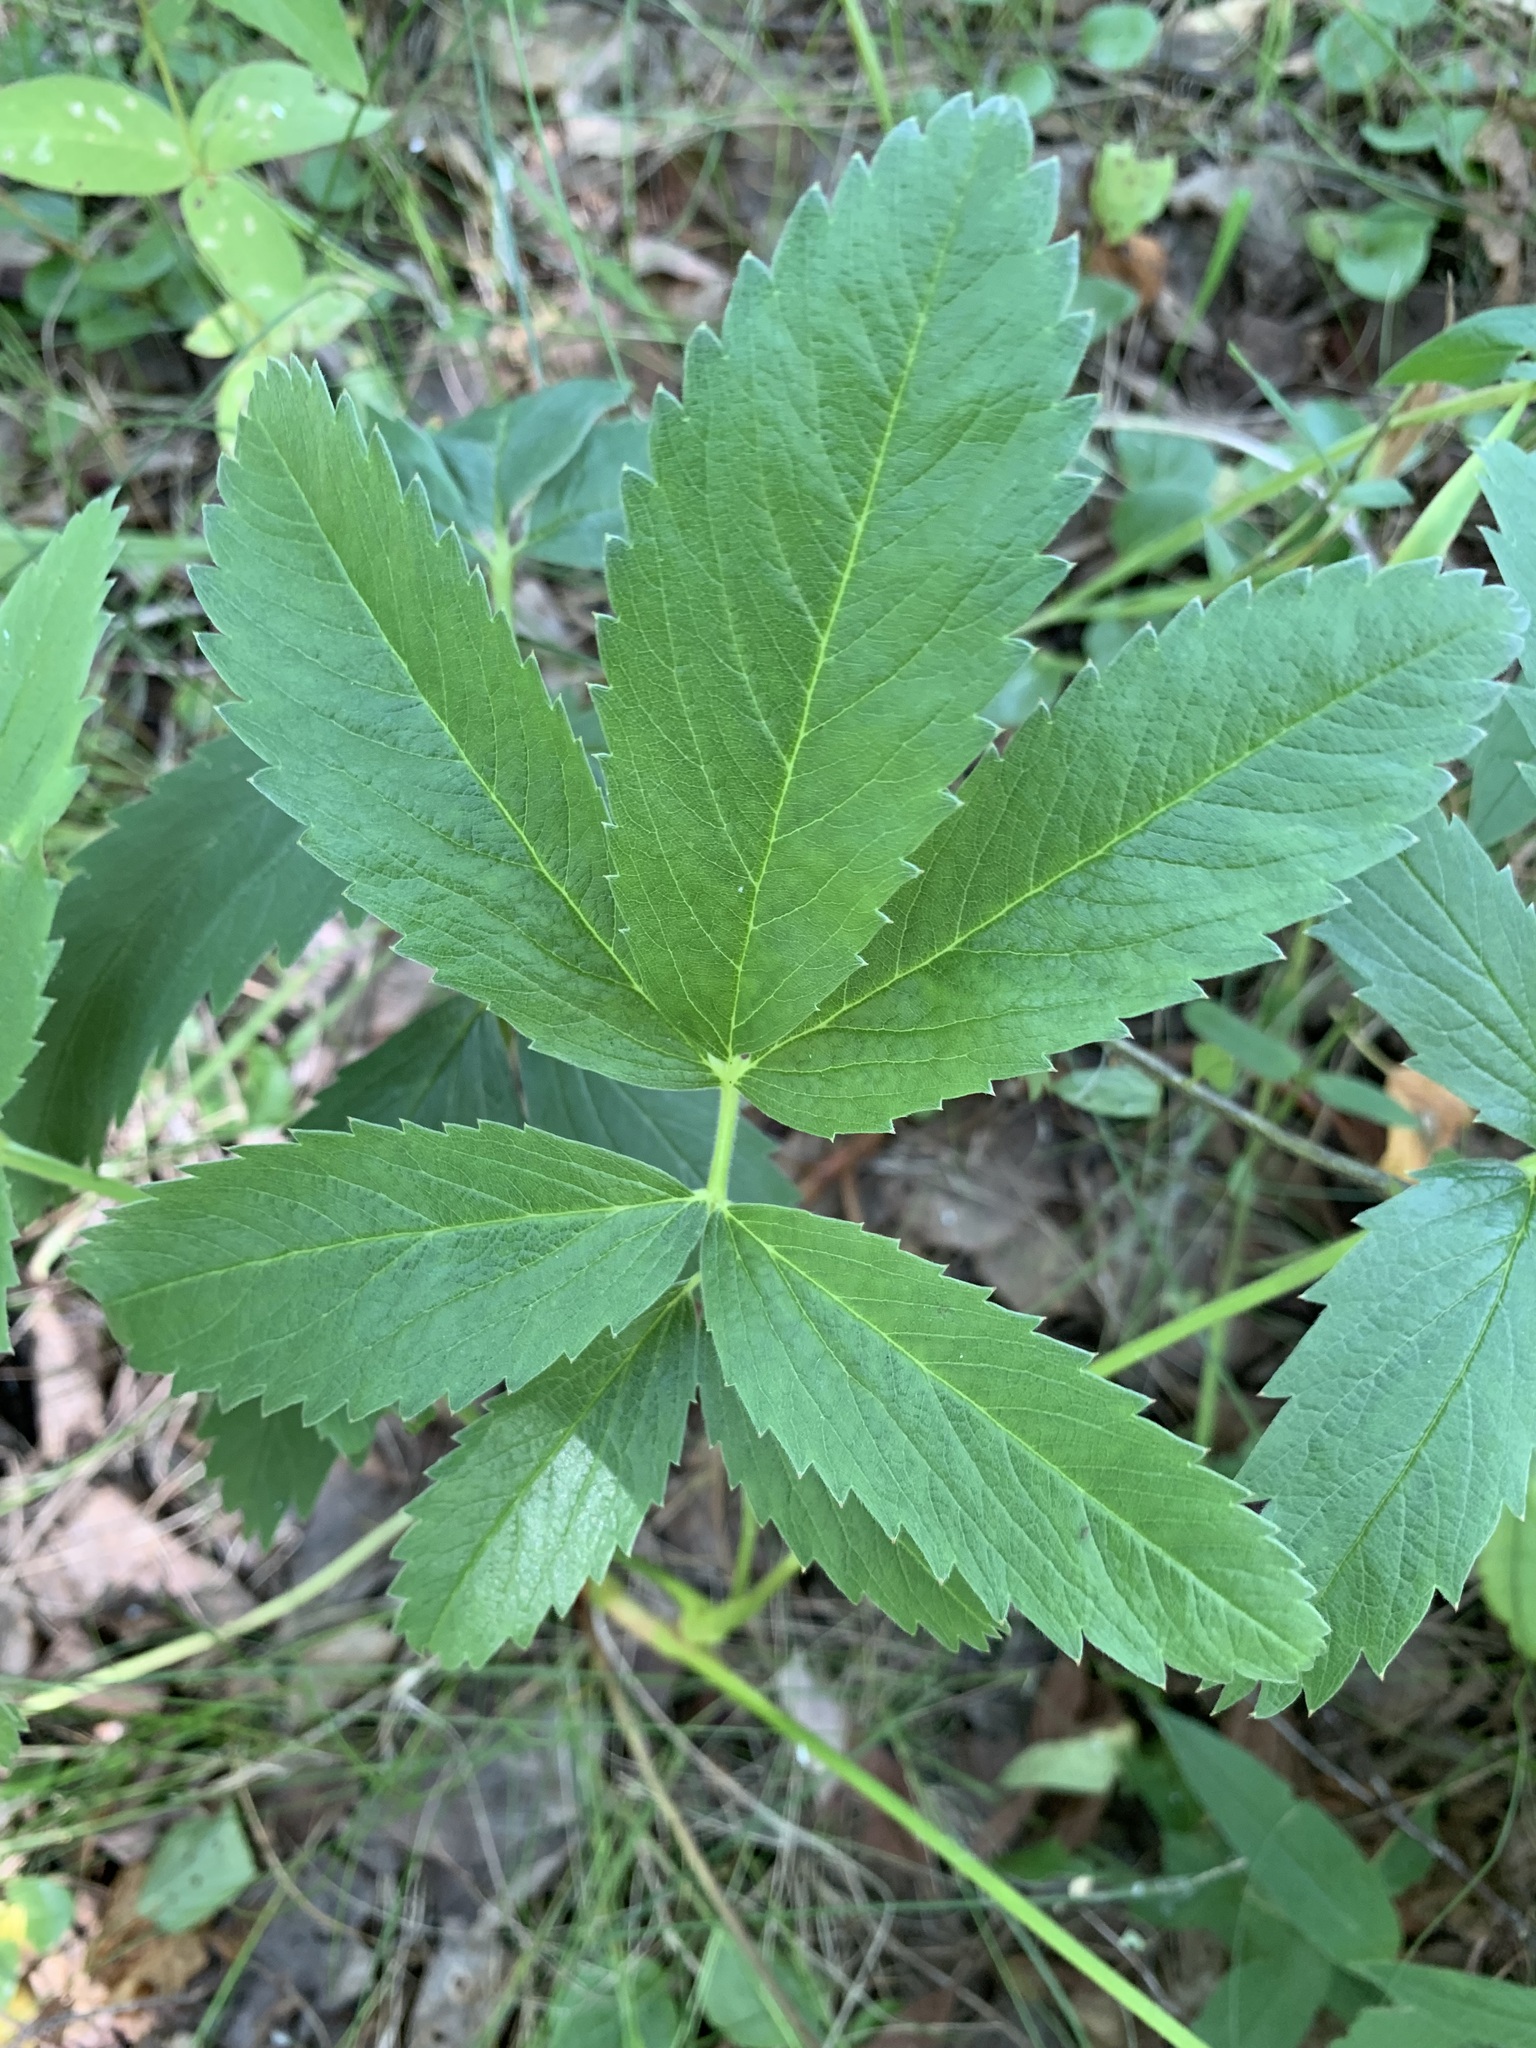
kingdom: Plantae
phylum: Tracheophyta
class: Magnoliopsida
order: Rosales
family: Rosaceae
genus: Comarum
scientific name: Comarum palustre
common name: Marsh cinquefoil
